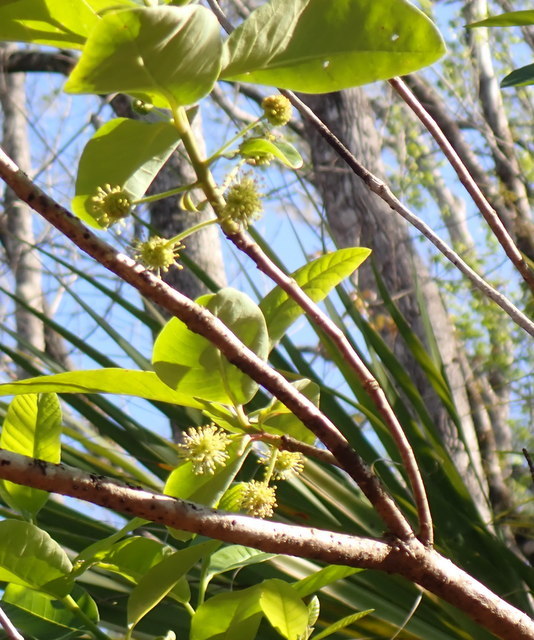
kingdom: Plantae
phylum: Tracheophyta
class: Magnoliopsida
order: Cornales
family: Nyssaceae
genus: Nyssa
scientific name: Nyssa ogeche
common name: Ogeechee tupelo
